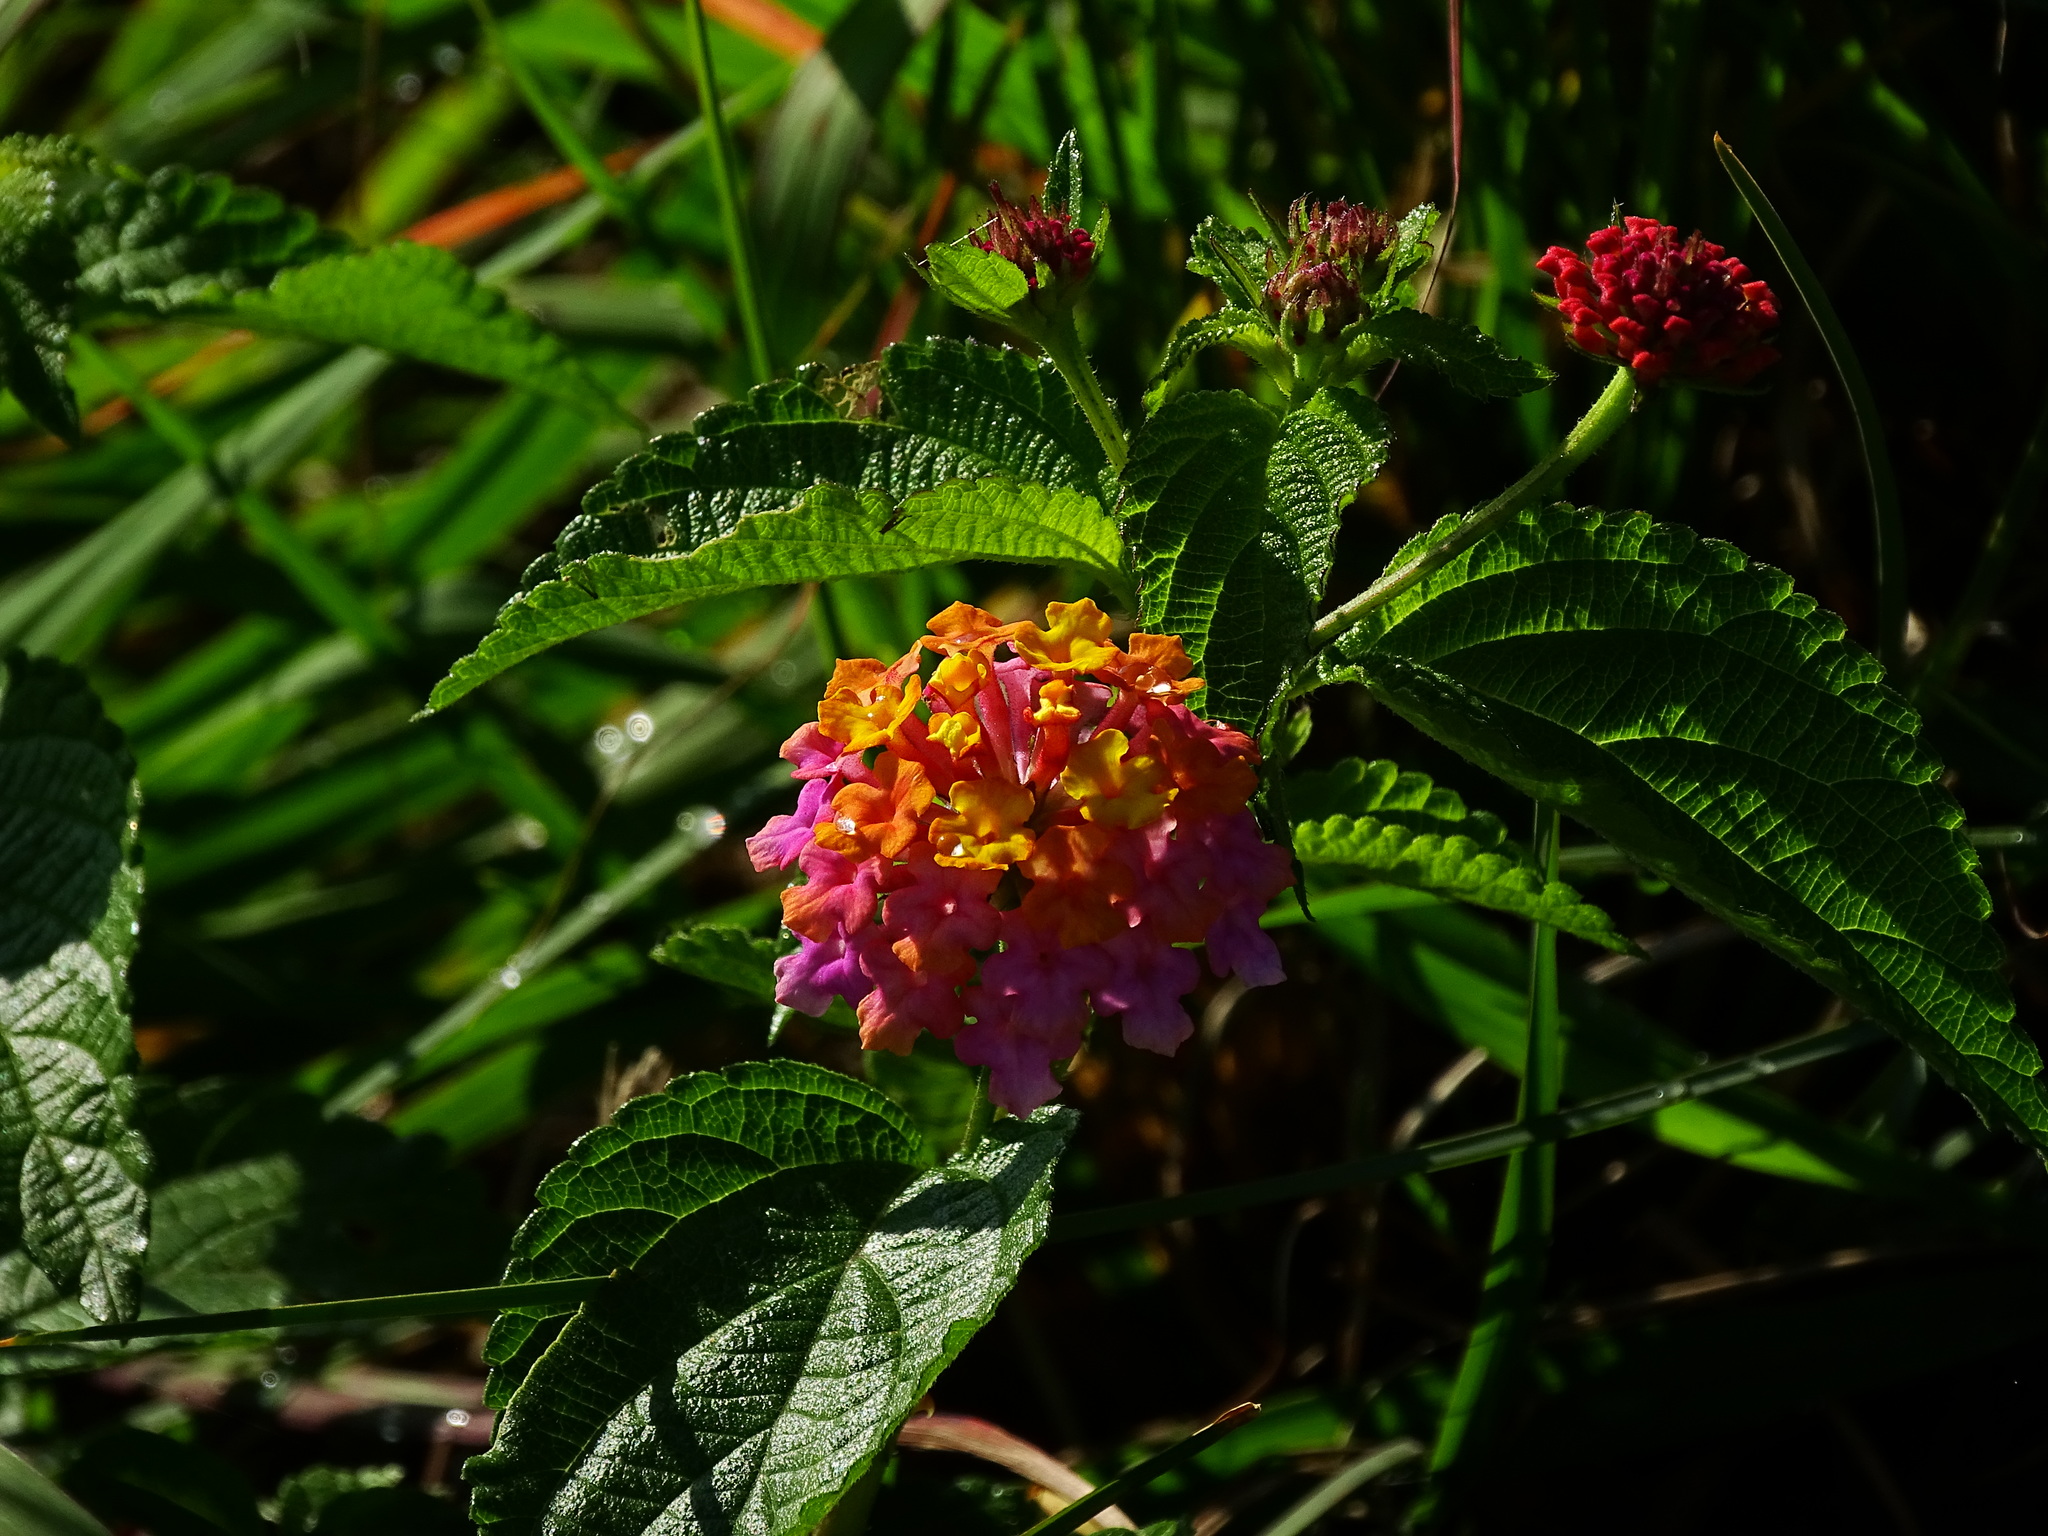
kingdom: Plantae
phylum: Tracheophyta
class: Magnoliopsida
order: Lamiales
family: Verbenaceae
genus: Lantana
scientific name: Lantana camara
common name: Lantana
